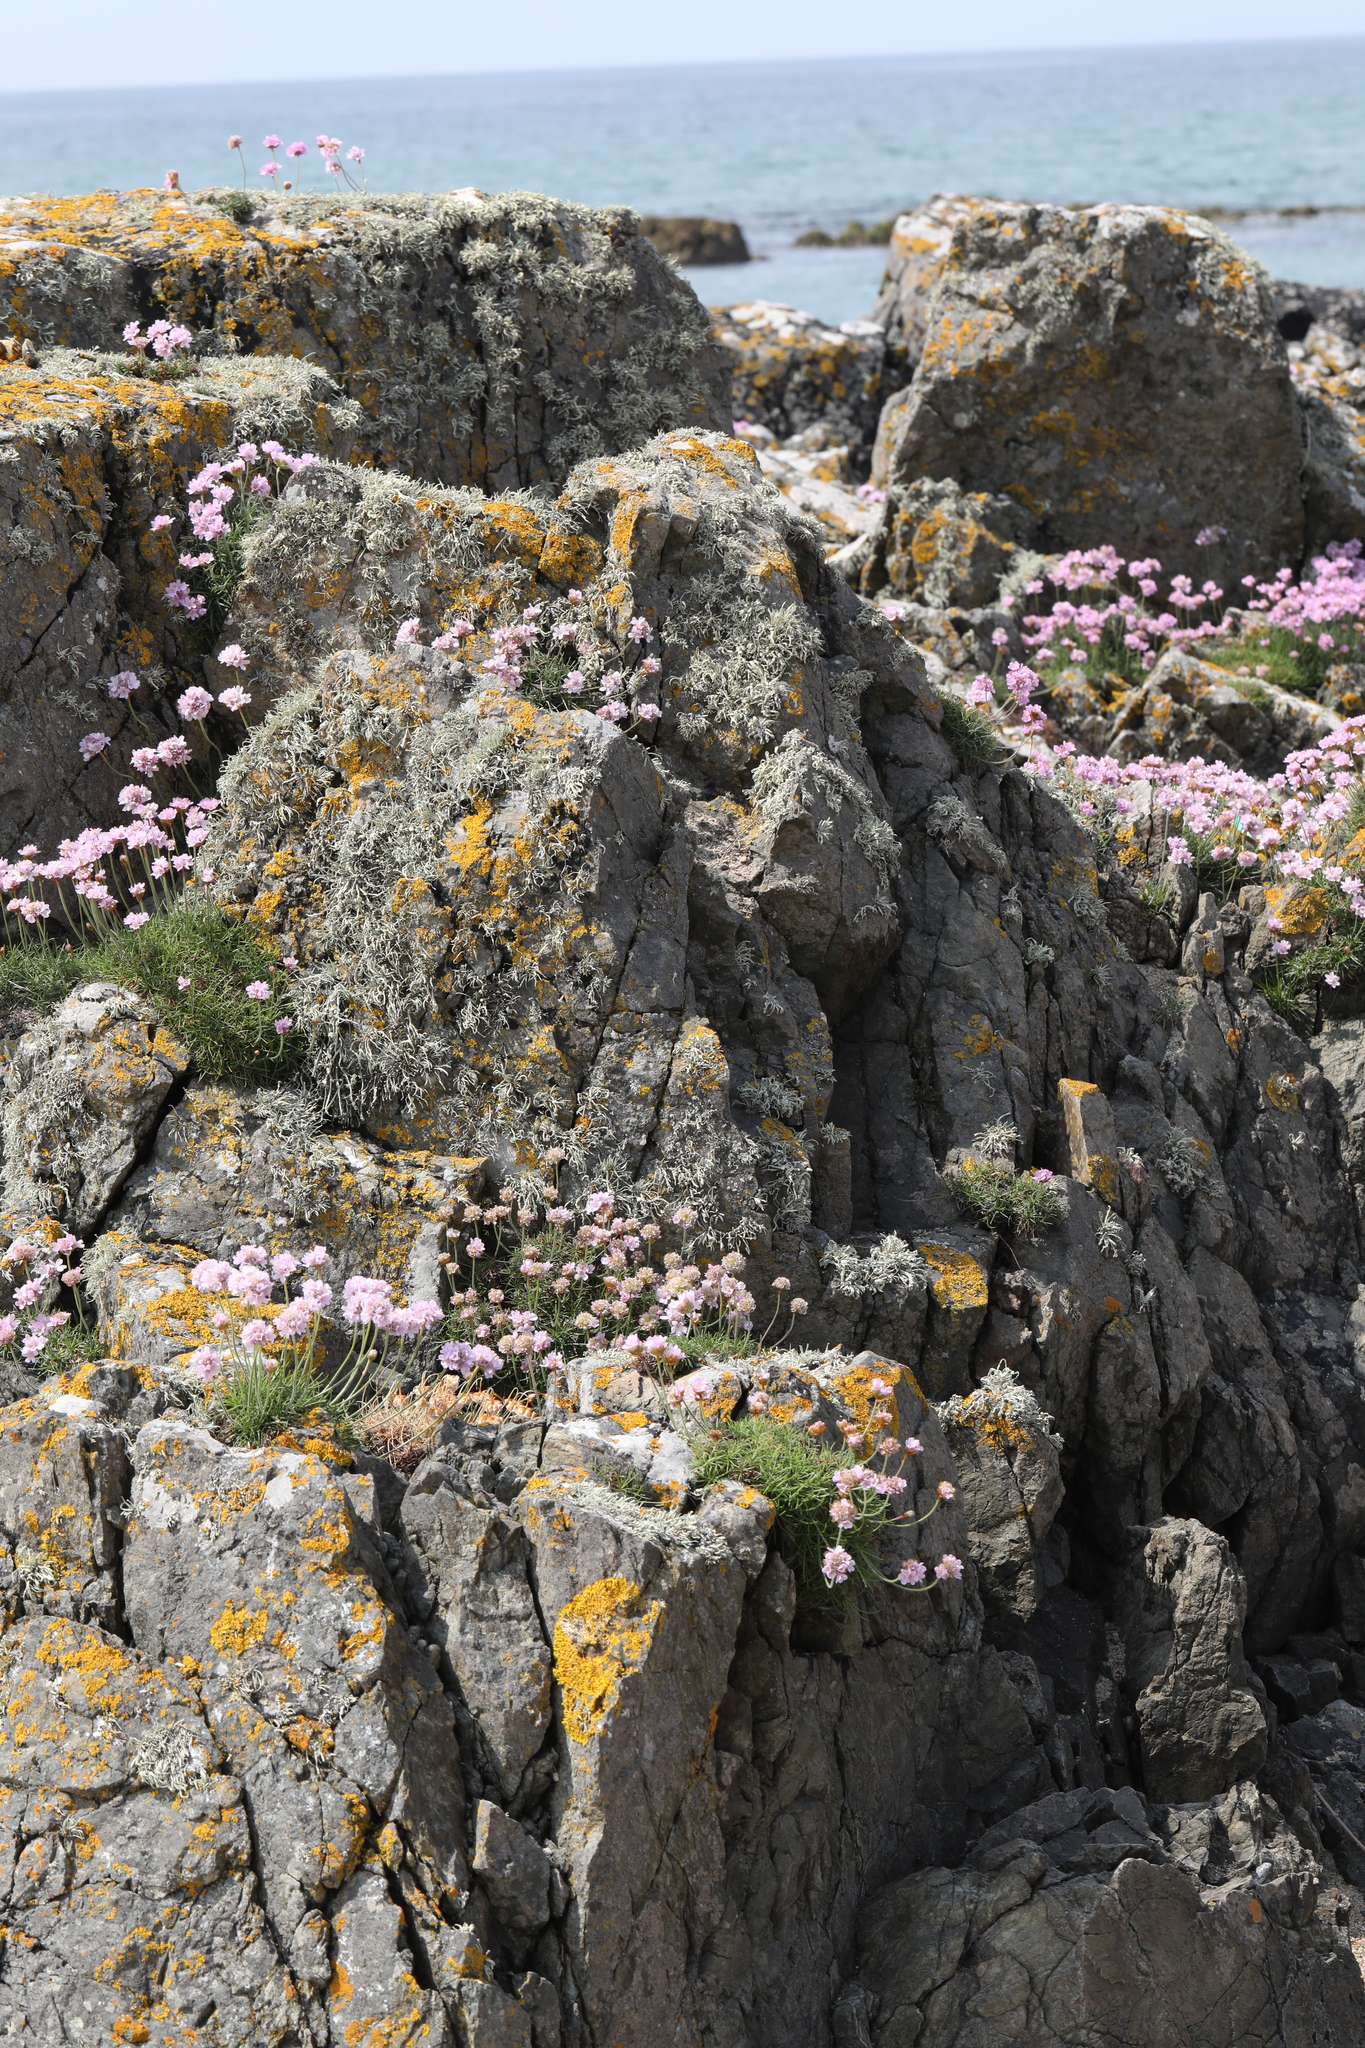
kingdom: Plantae
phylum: Tracheophyta
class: Magnoliopsida
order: Caryophyllales
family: Plumbaginaceae
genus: Armeria
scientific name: Armeria maritima
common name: Thrift
